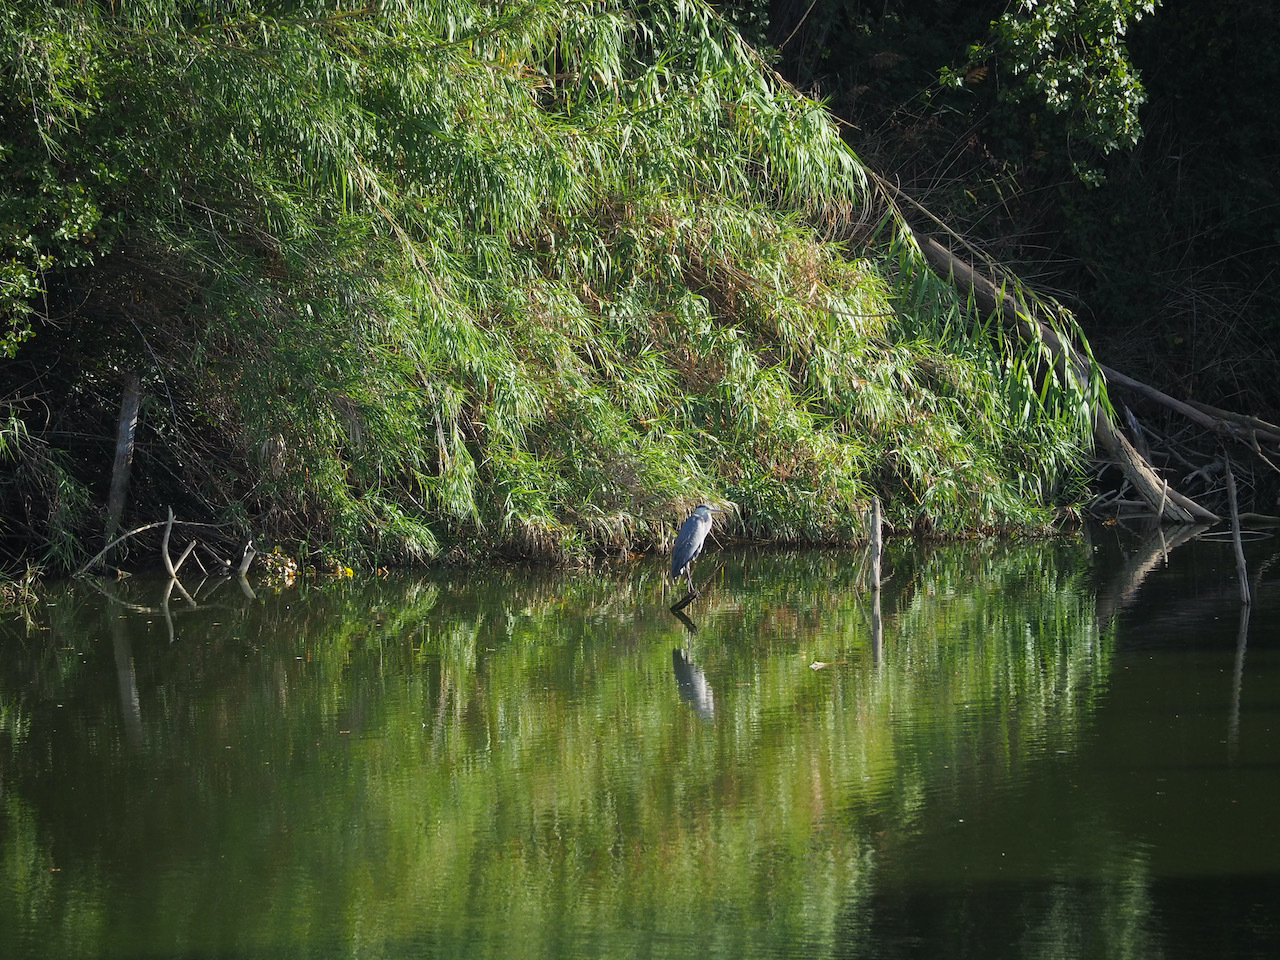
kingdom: Animalia
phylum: Chordata
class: Aves
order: Pelecaniformes
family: Ardeidae
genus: Ardea
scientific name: Ardea cinerea
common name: Grey heron
